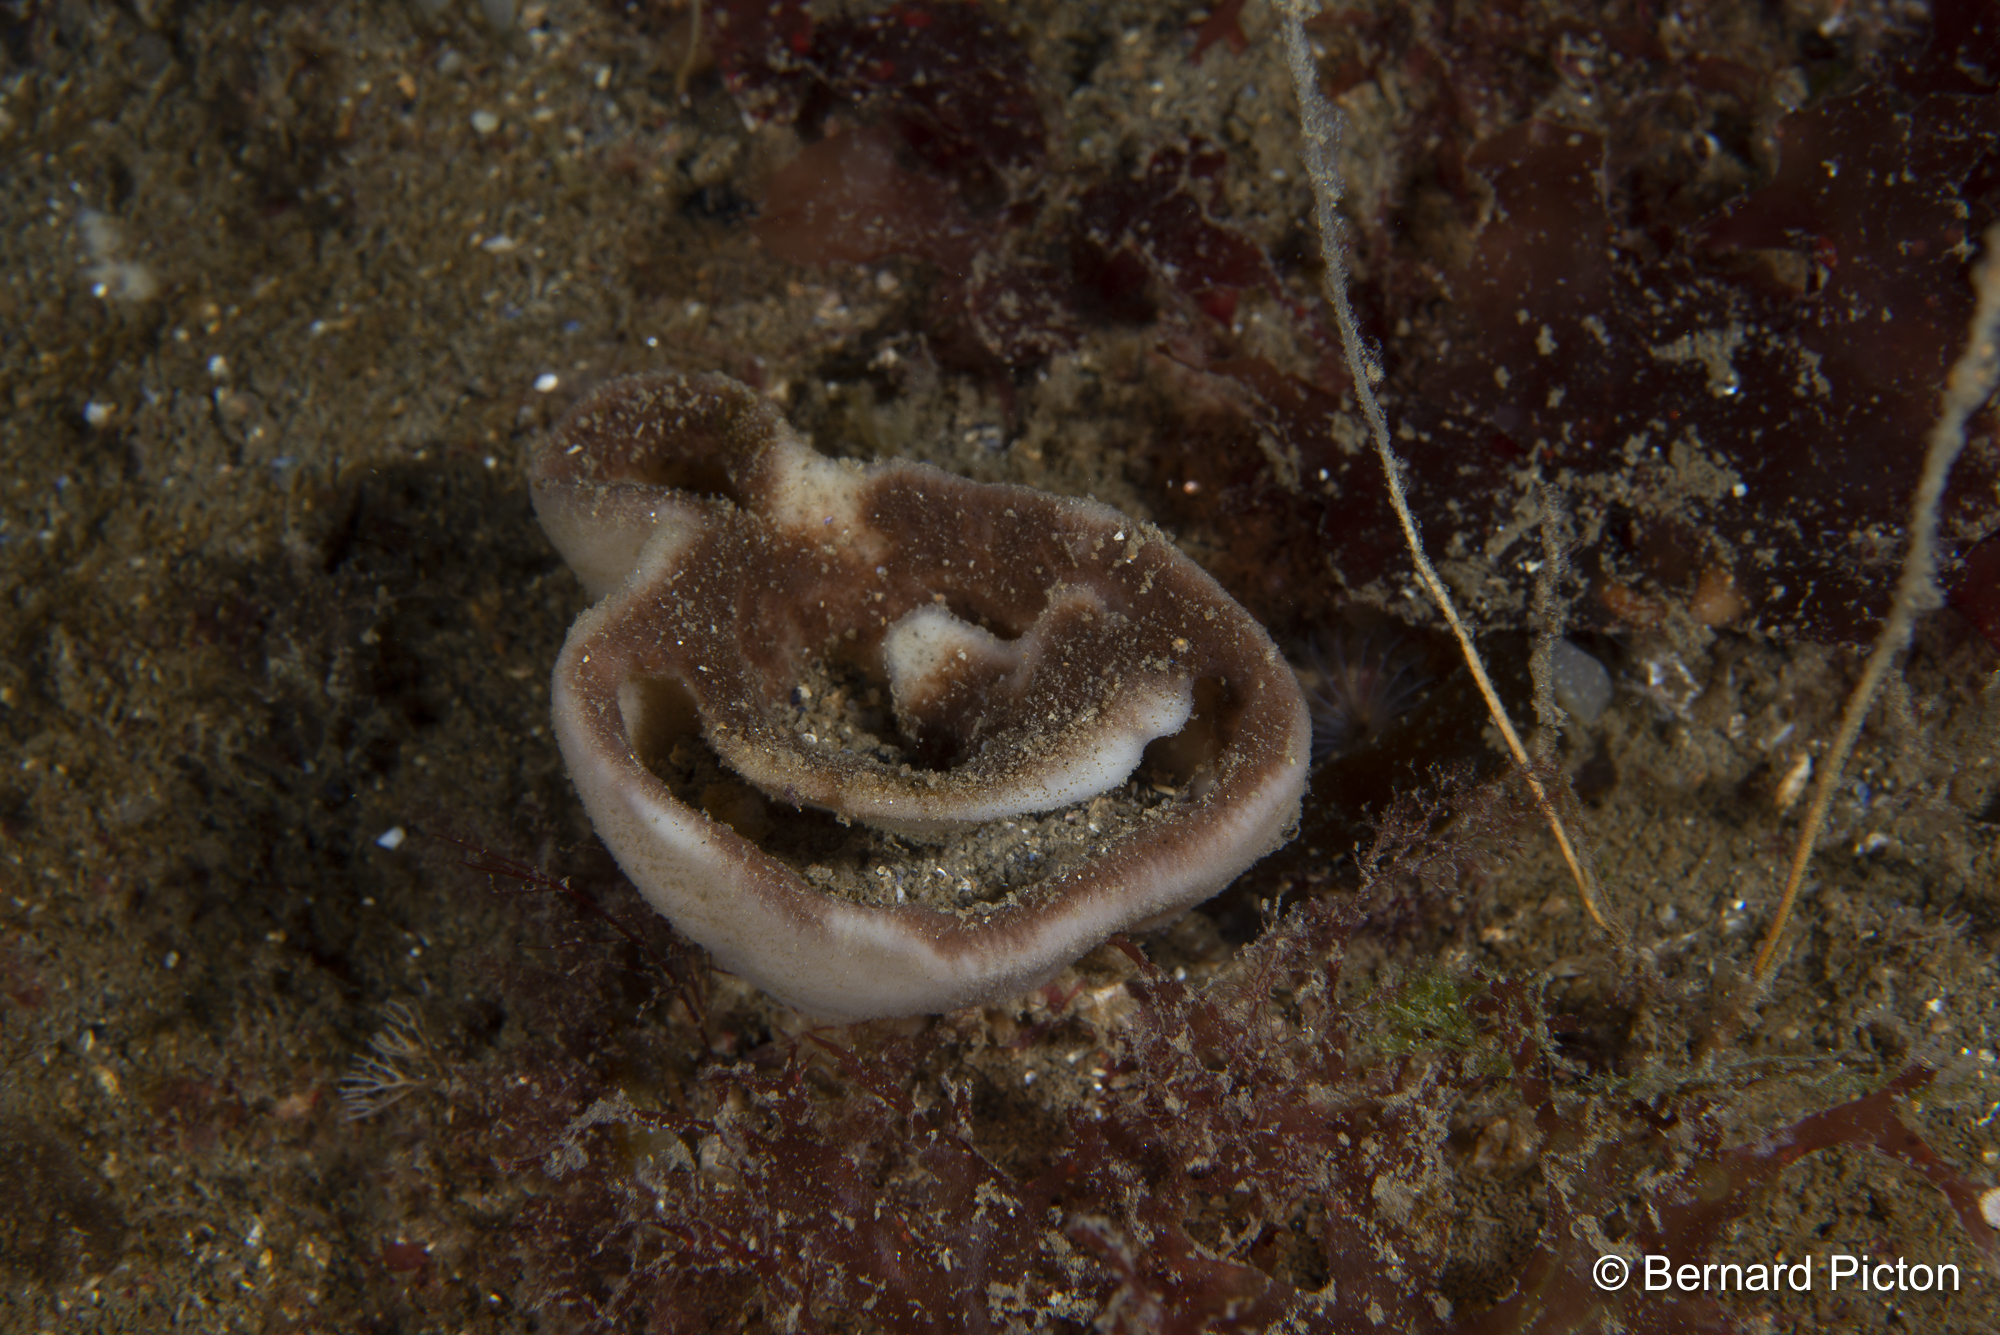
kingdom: Animalia
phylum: Porifera
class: Demospongiae
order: Bubarida
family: Bubaridae
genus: Phakellia
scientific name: Phakellia ventilabrum
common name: Chalice sponge
